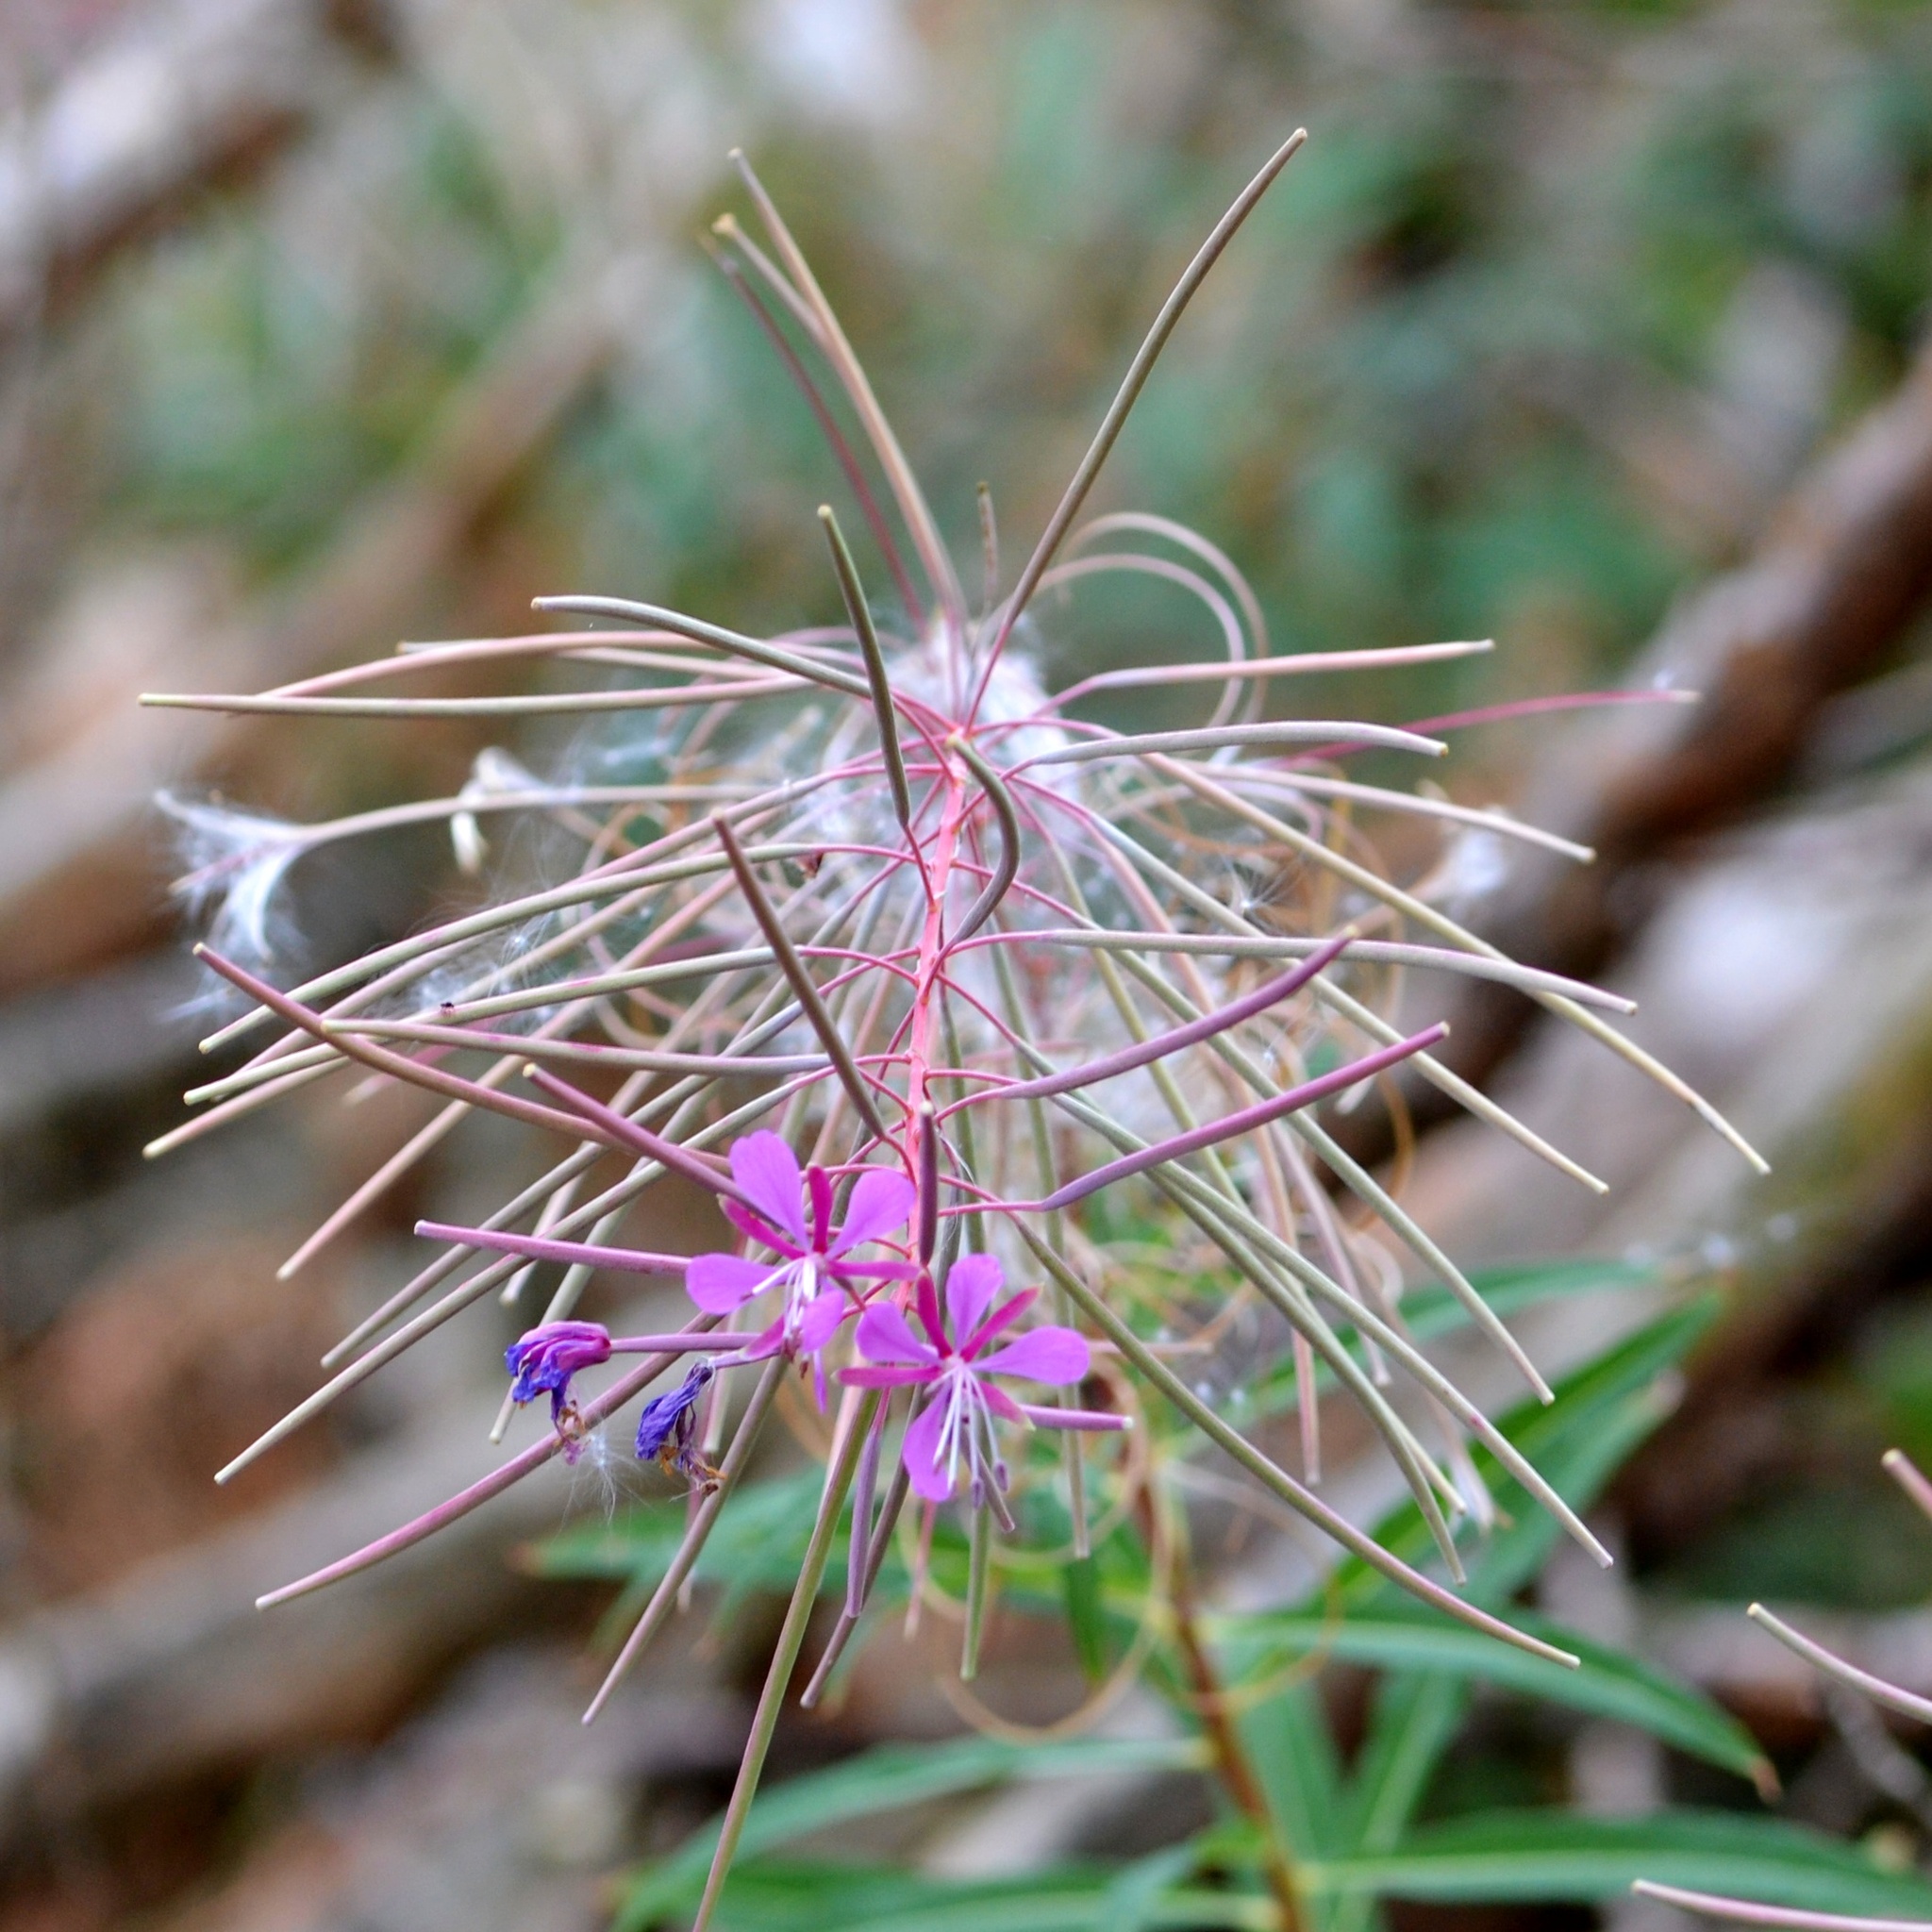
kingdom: Plantae
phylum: Tracheophyta
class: Magnoliopsida
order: Myrtales
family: Onagraceae
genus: Chamaenerion
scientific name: Chamaenerion angustifolium
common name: Fireweed
